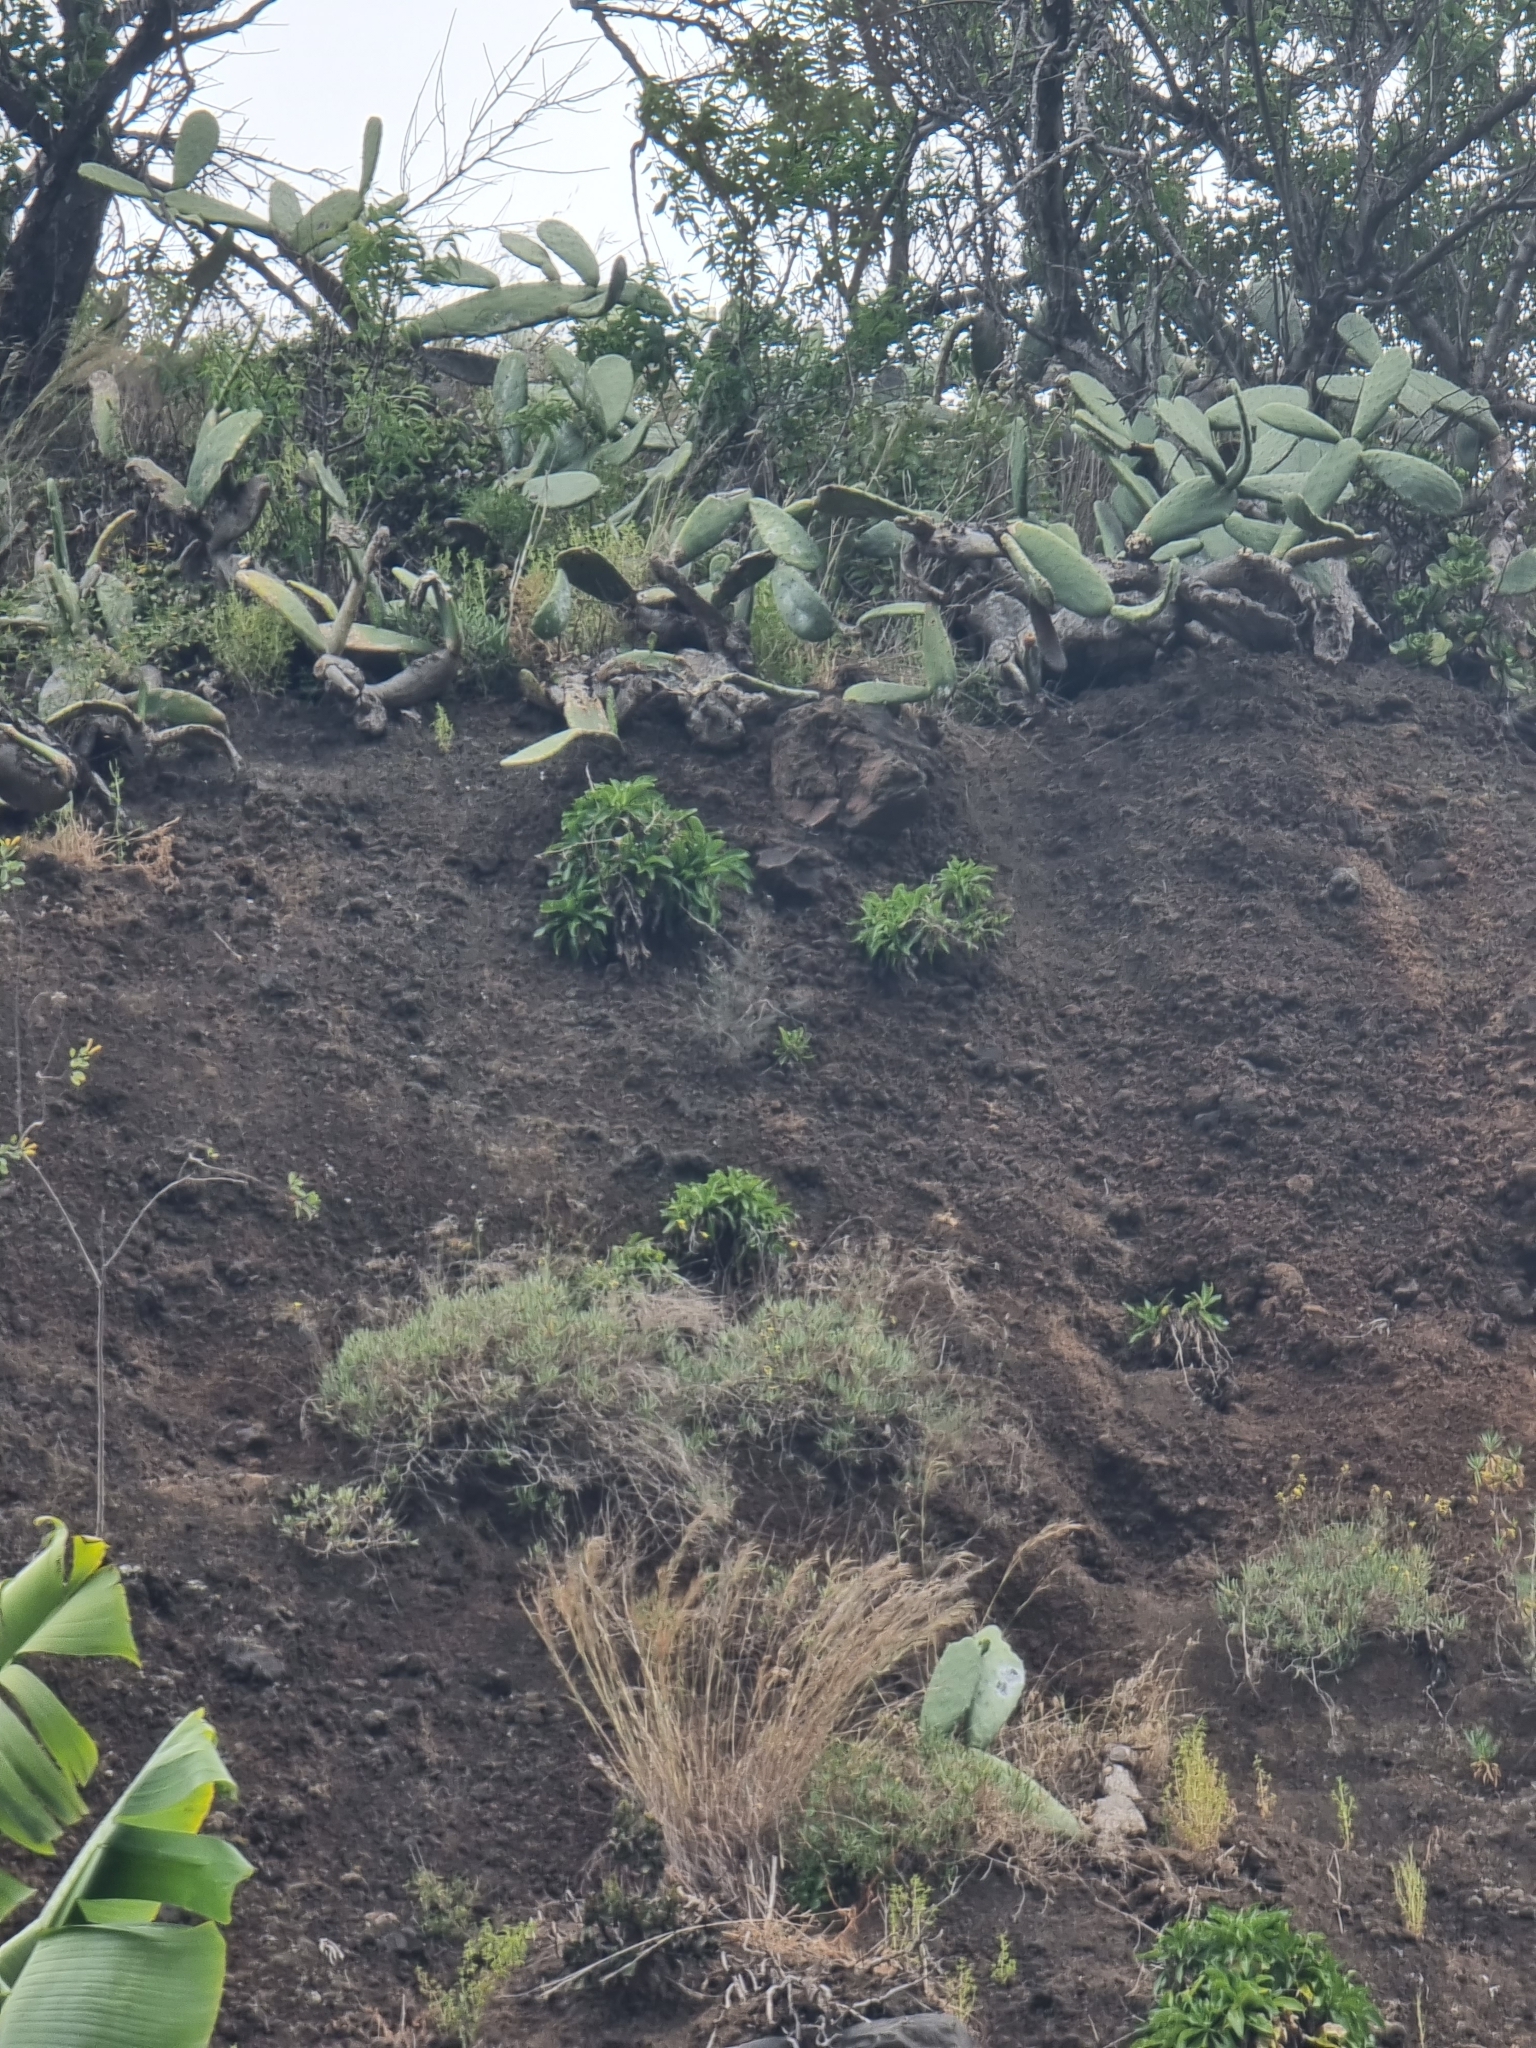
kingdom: Plantae
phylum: Tracheophyta
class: Magnoliopsida
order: Asterales
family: Campanulaceae
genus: Musschia
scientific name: Musschia aurea
